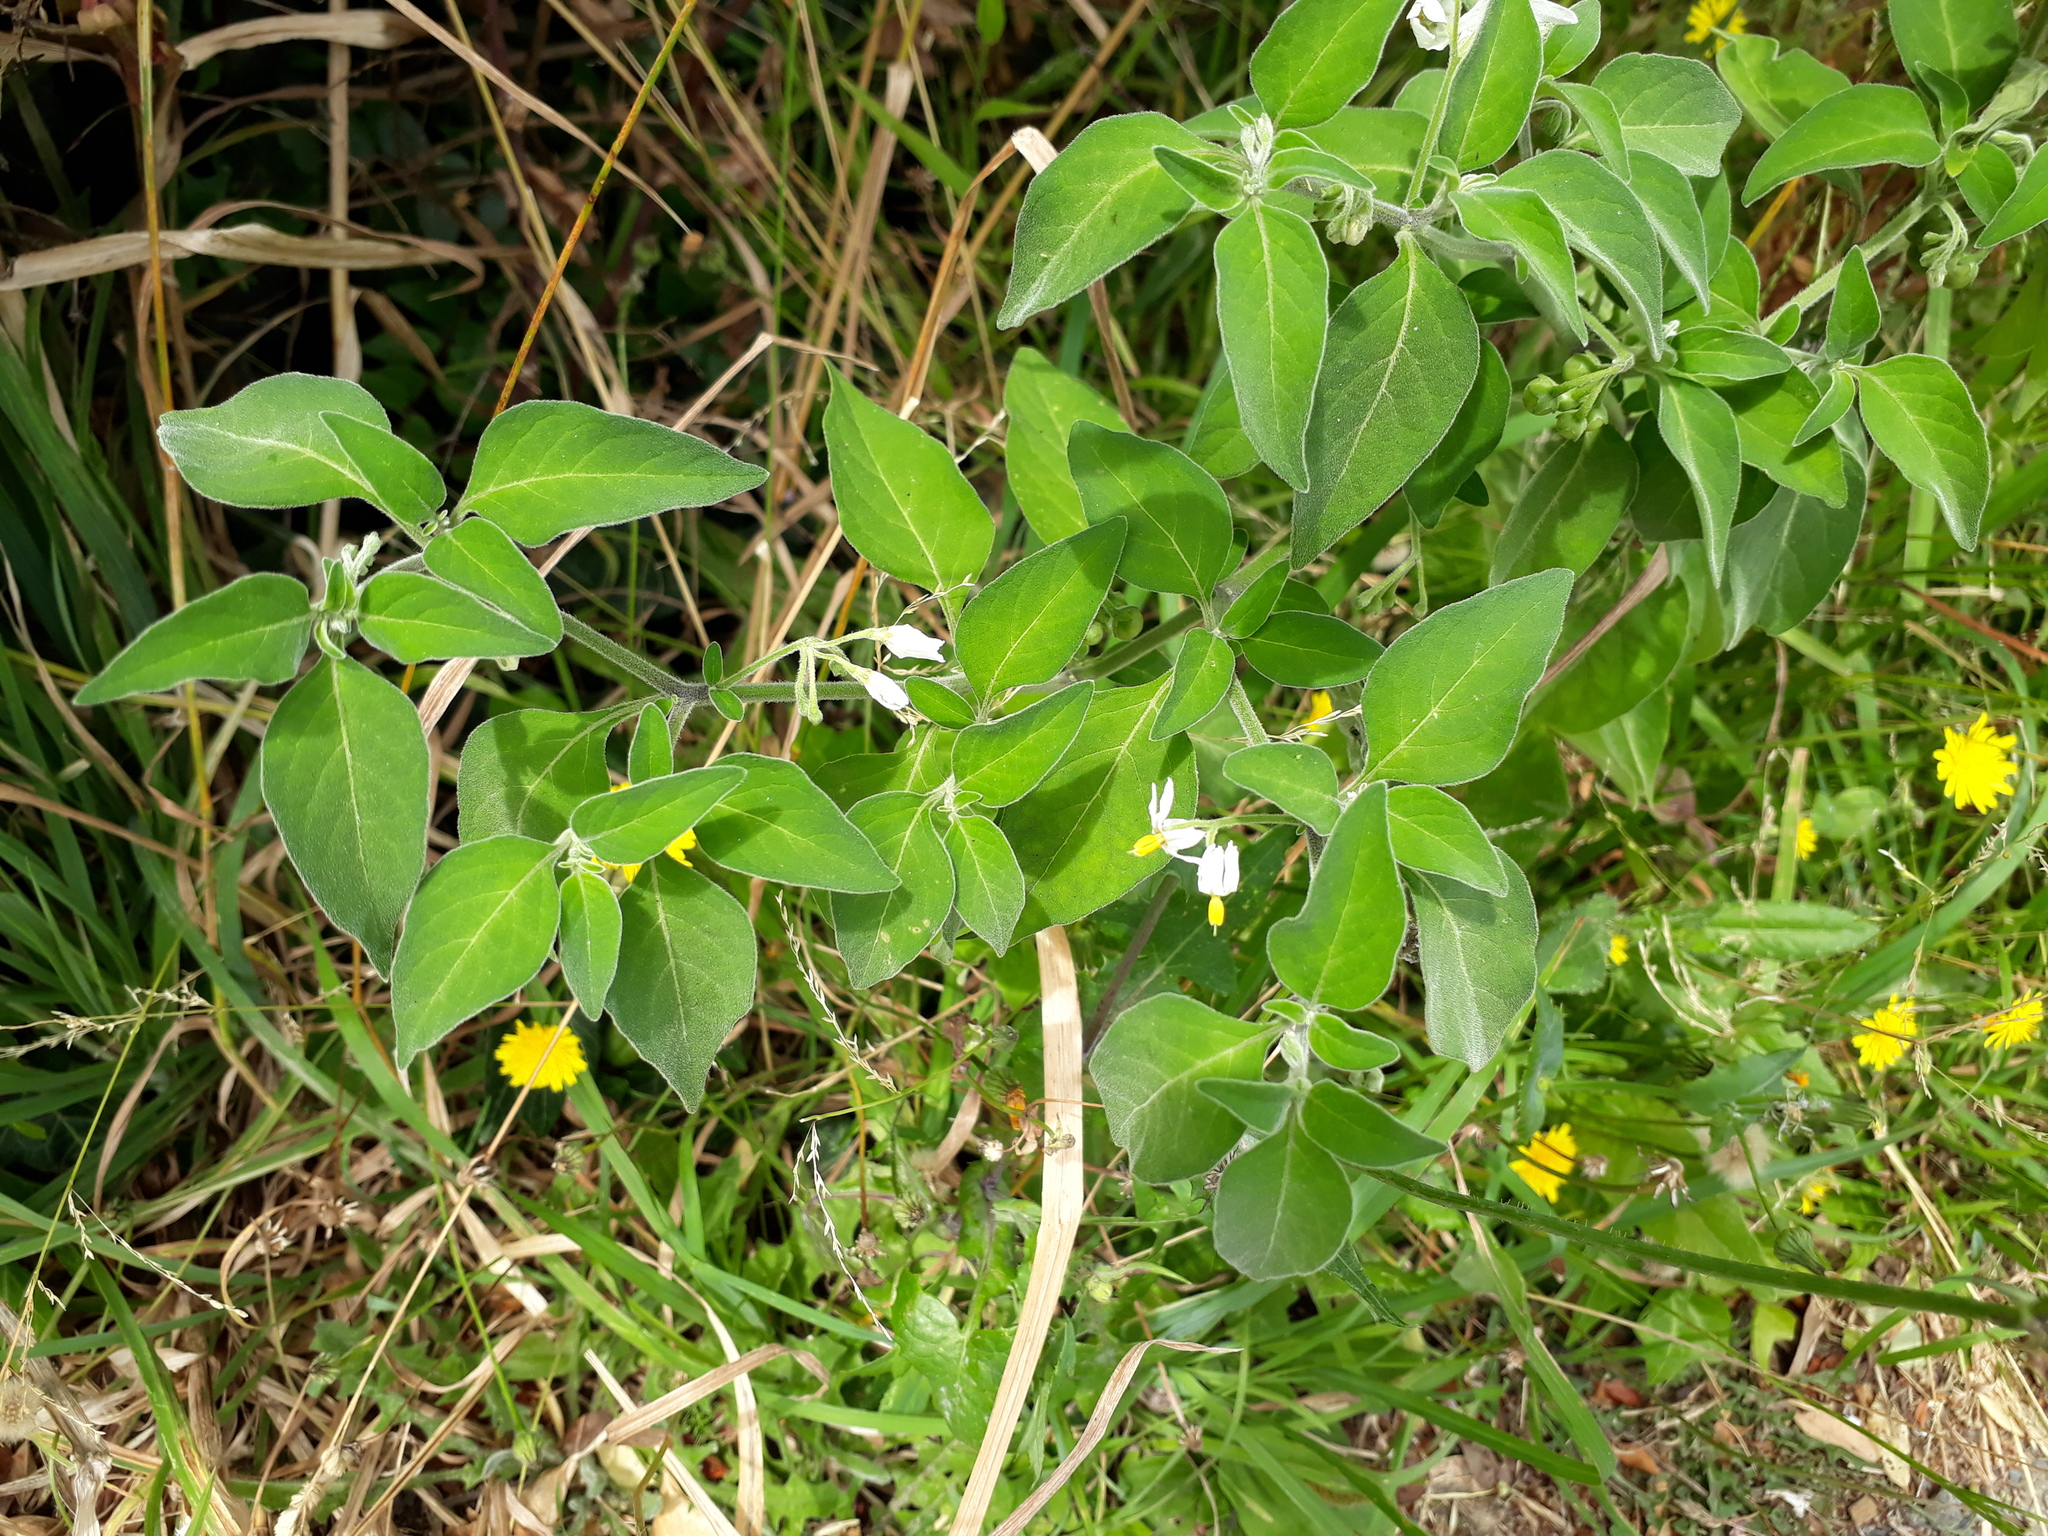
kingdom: Plantae
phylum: Tracheophyta
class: Magnoliopsida
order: Solanales
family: Solanaceae
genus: Solanum
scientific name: Solanum chenopodioides
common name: Tall nightshade
